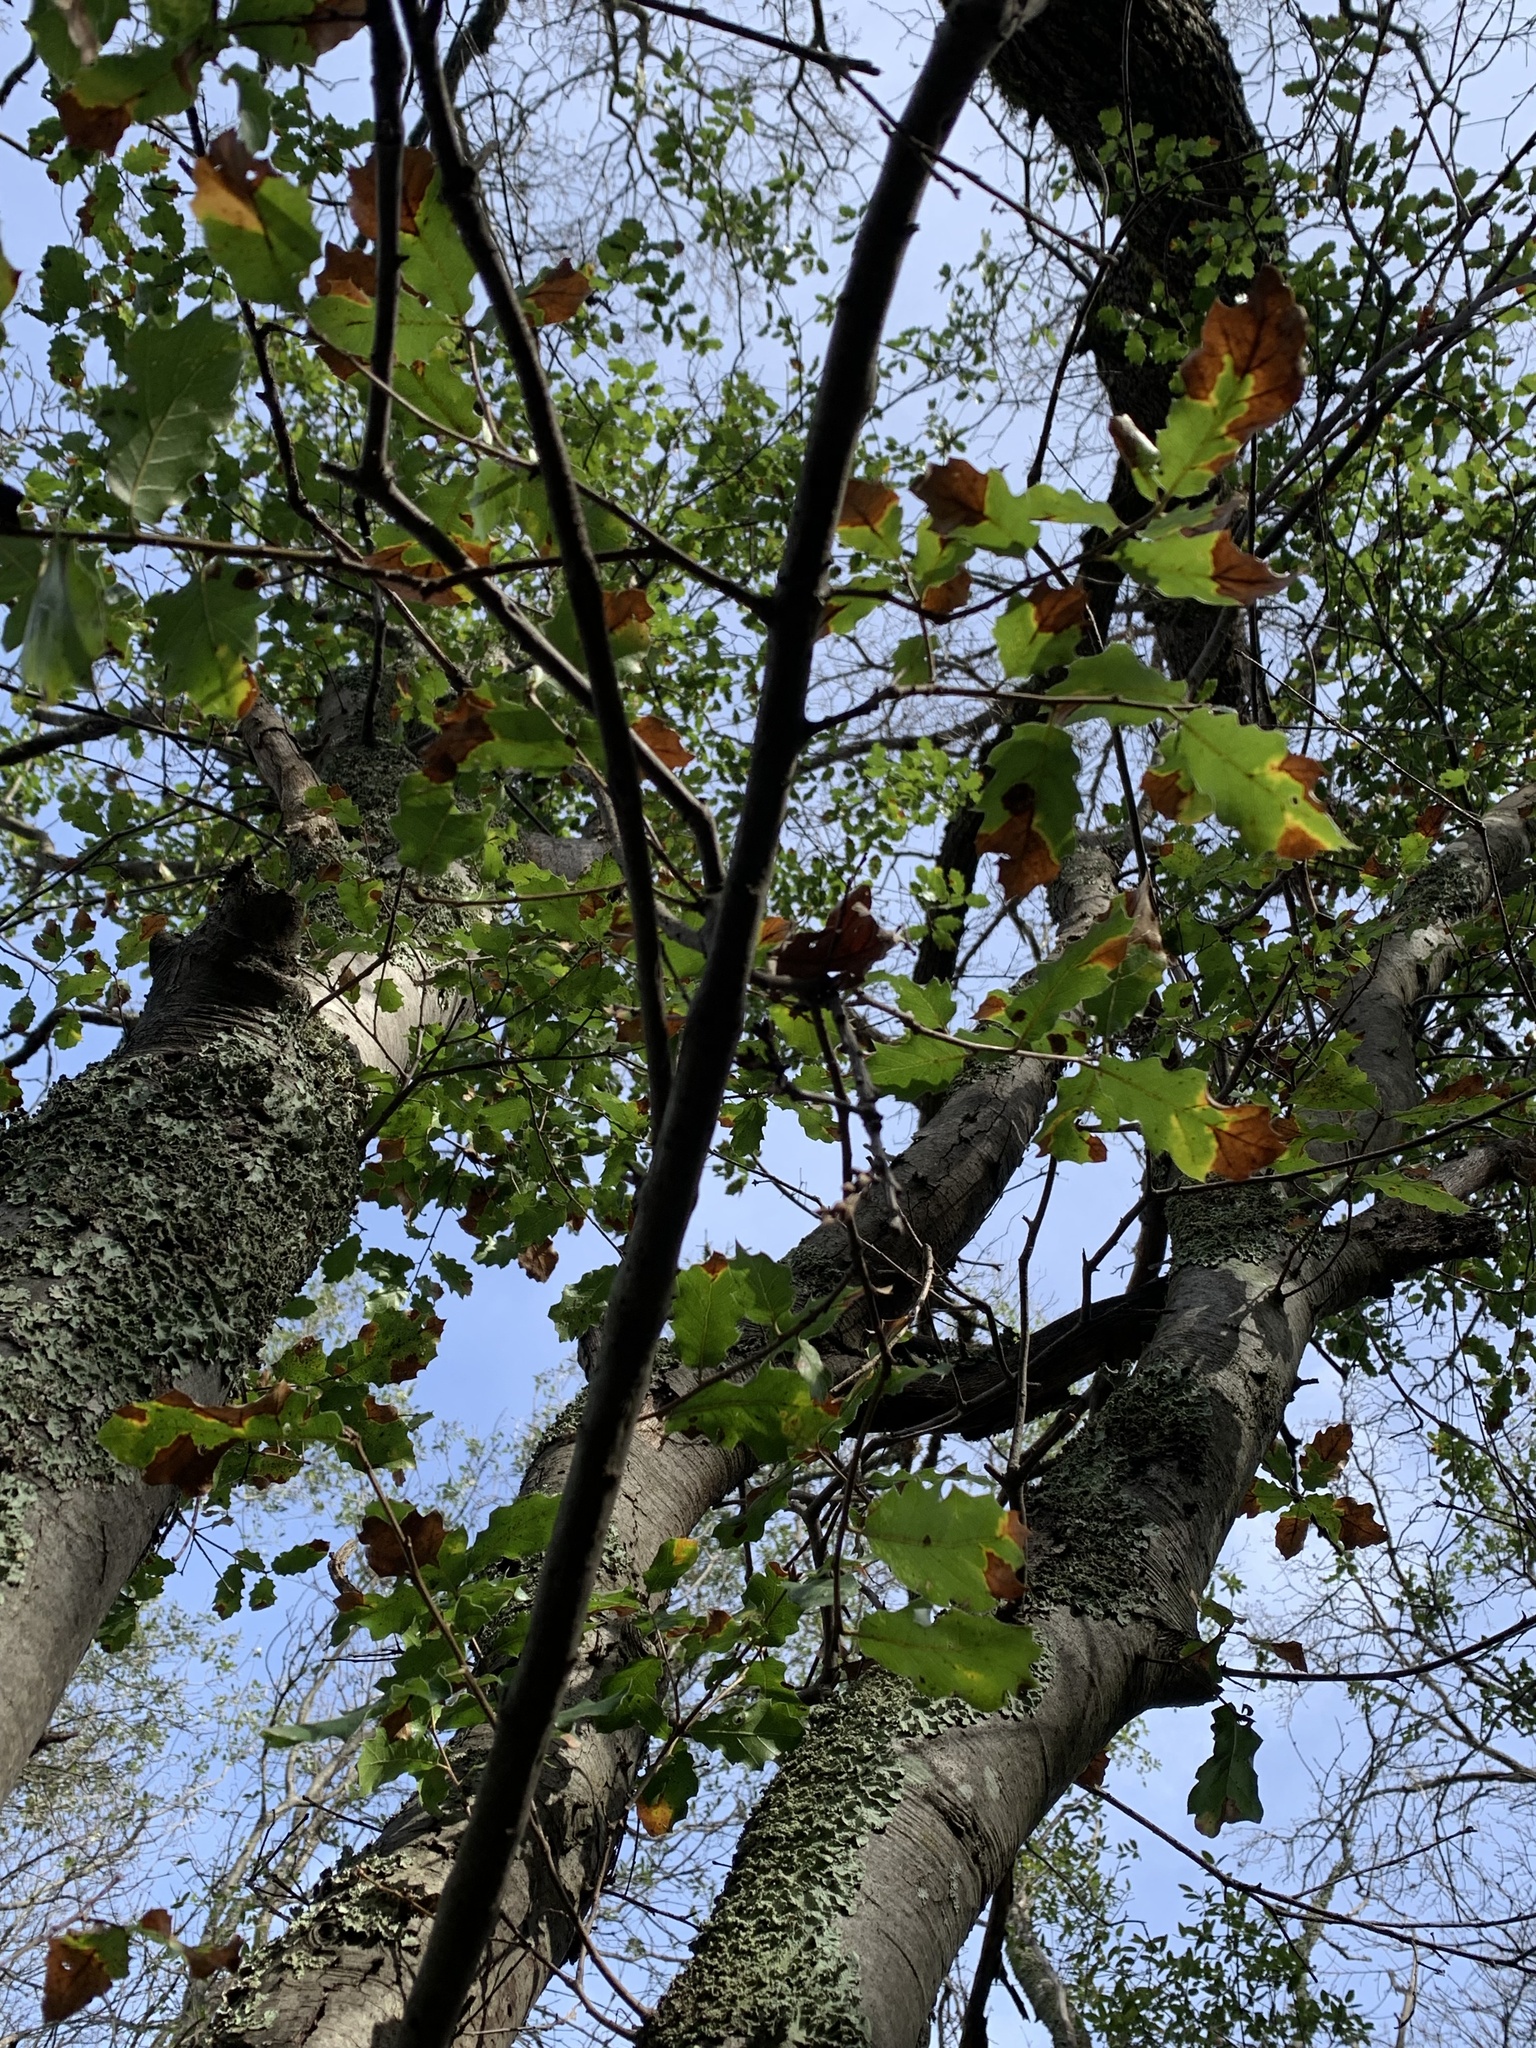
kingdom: Plantae
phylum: Tracheophyta
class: Magnoliopsida
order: Fagales
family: Fagaceae
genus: Quercus
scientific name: Quercus morehus
